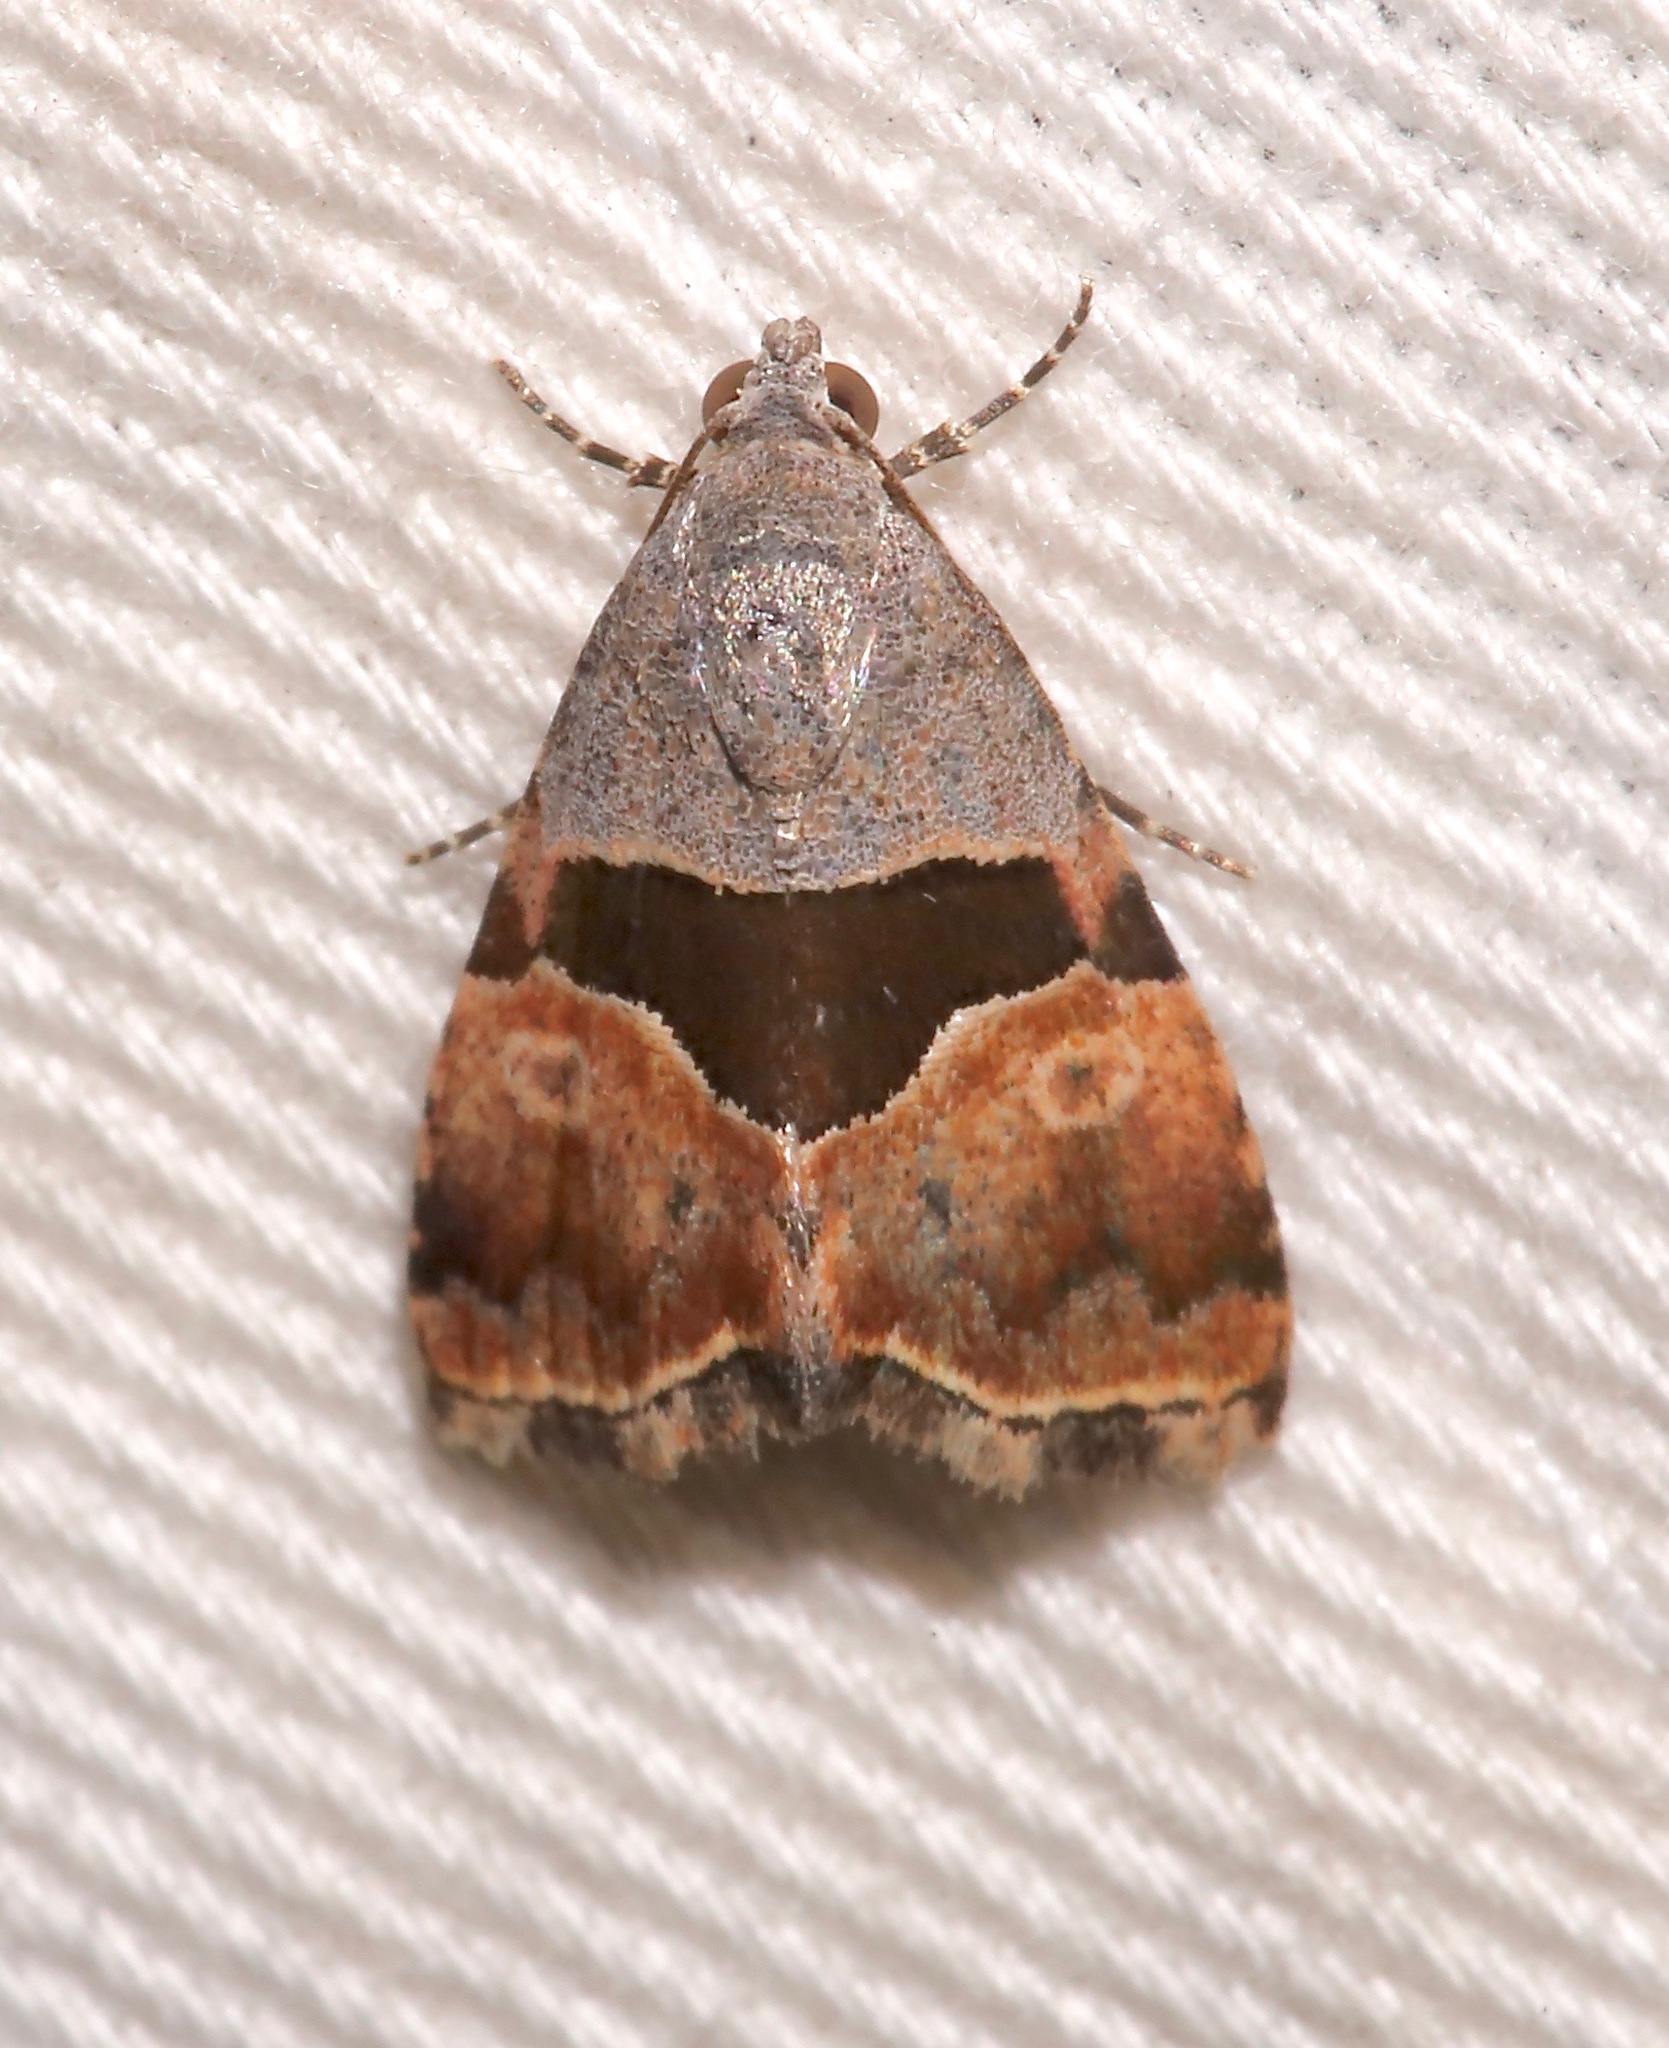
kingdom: Animalia
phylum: Arthropoda
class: Insecta
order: Lepidoptera
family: Noctuidae
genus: Cobubatha
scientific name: Cobubatha lixiva
